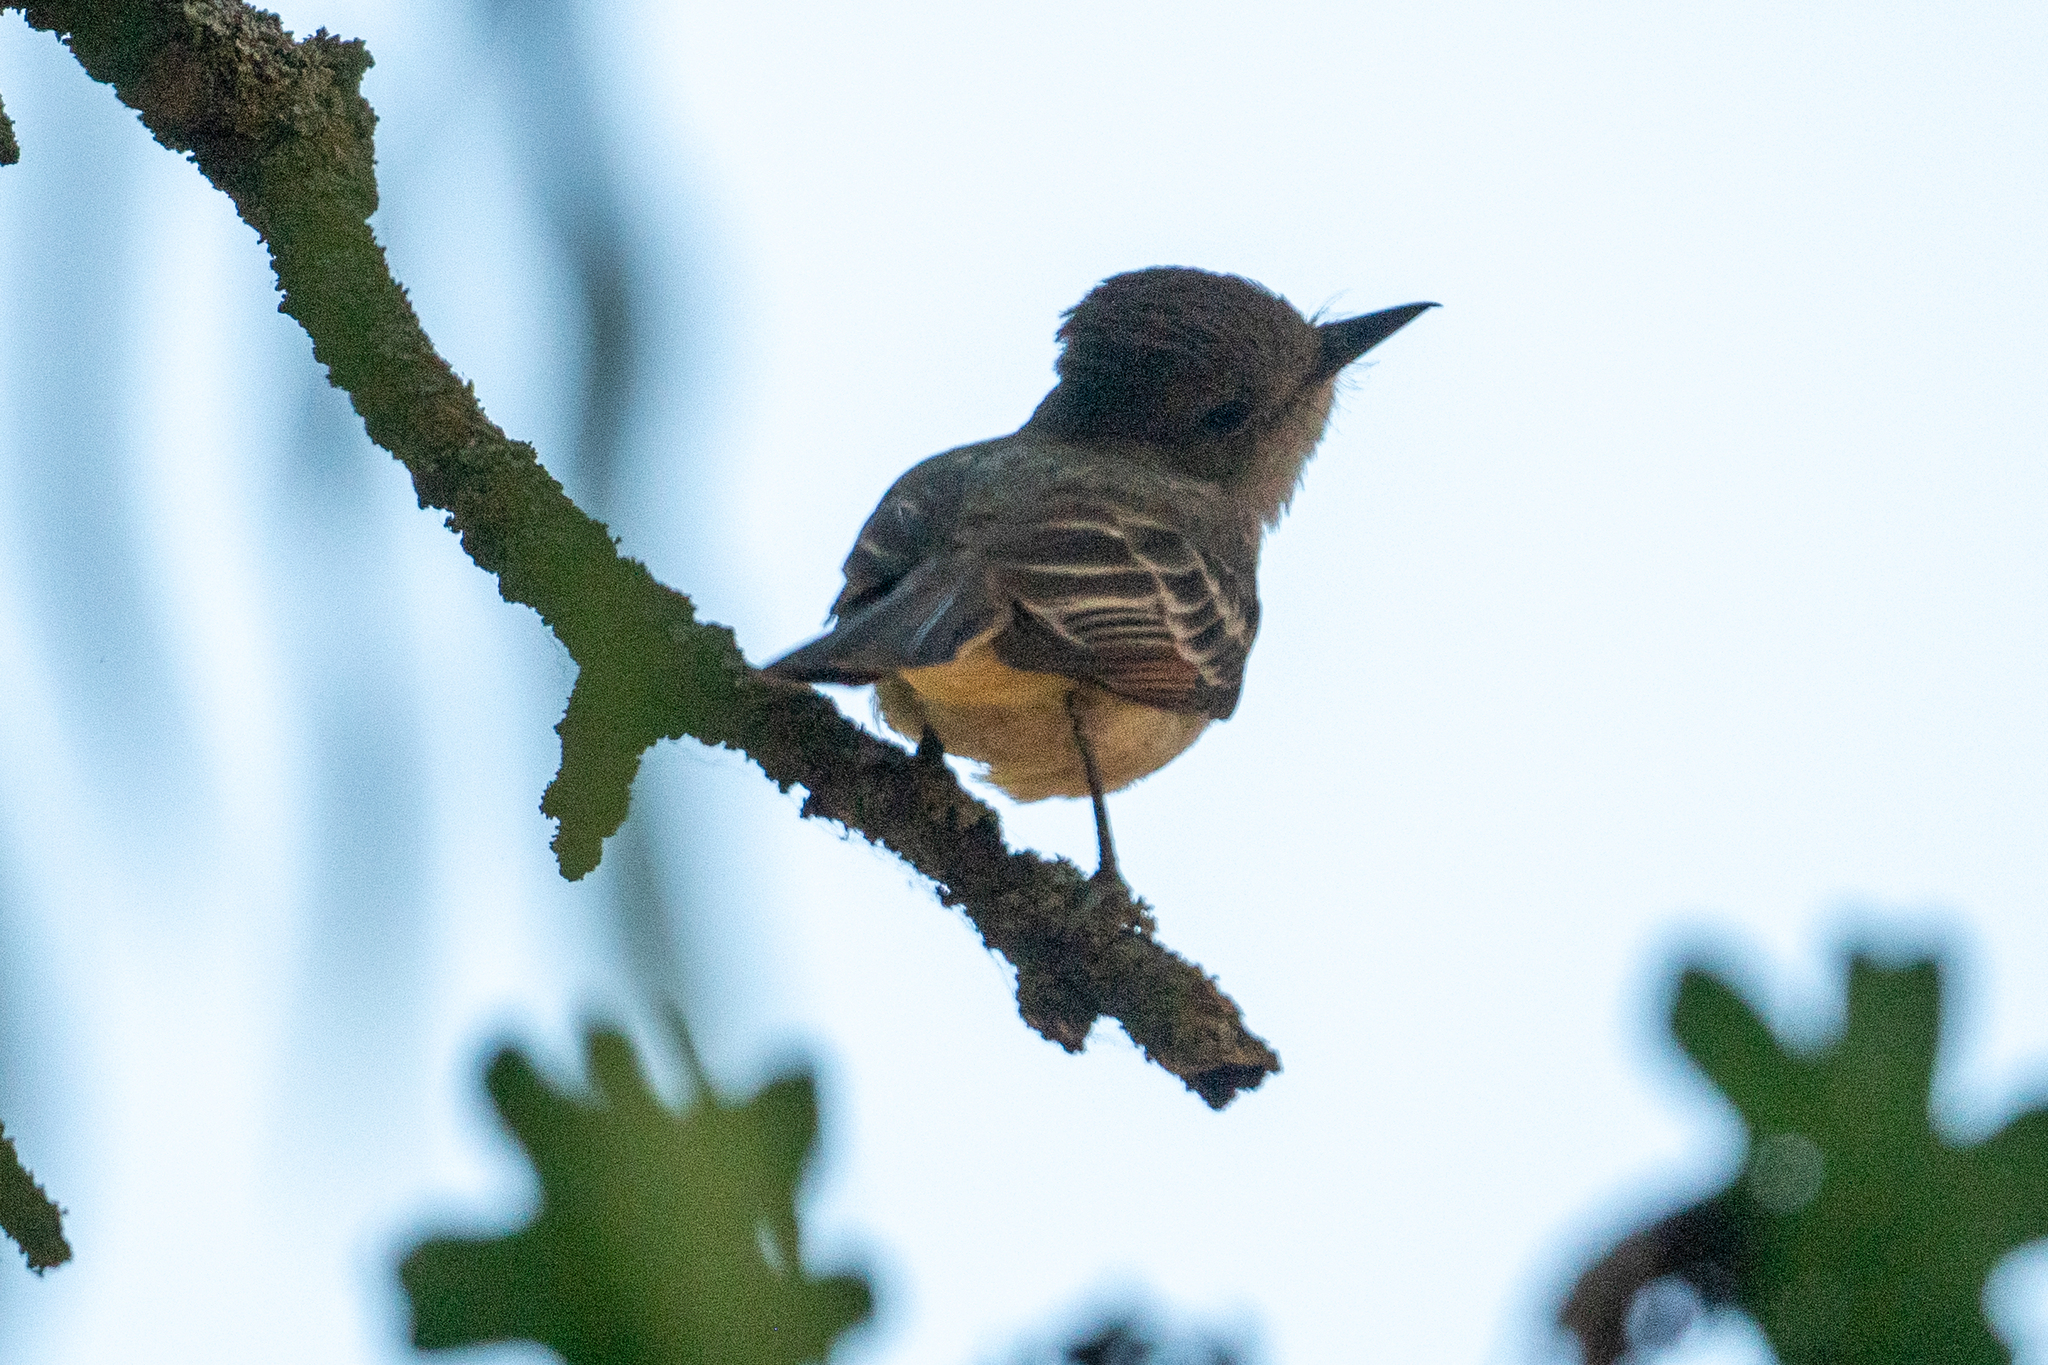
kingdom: Animalia
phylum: Chordata
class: Aves
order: Passeriformes
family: Tyrannidae
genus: Myiarchus
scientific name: Myiarchus cinerascens
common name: Ash-throated flycatcher
